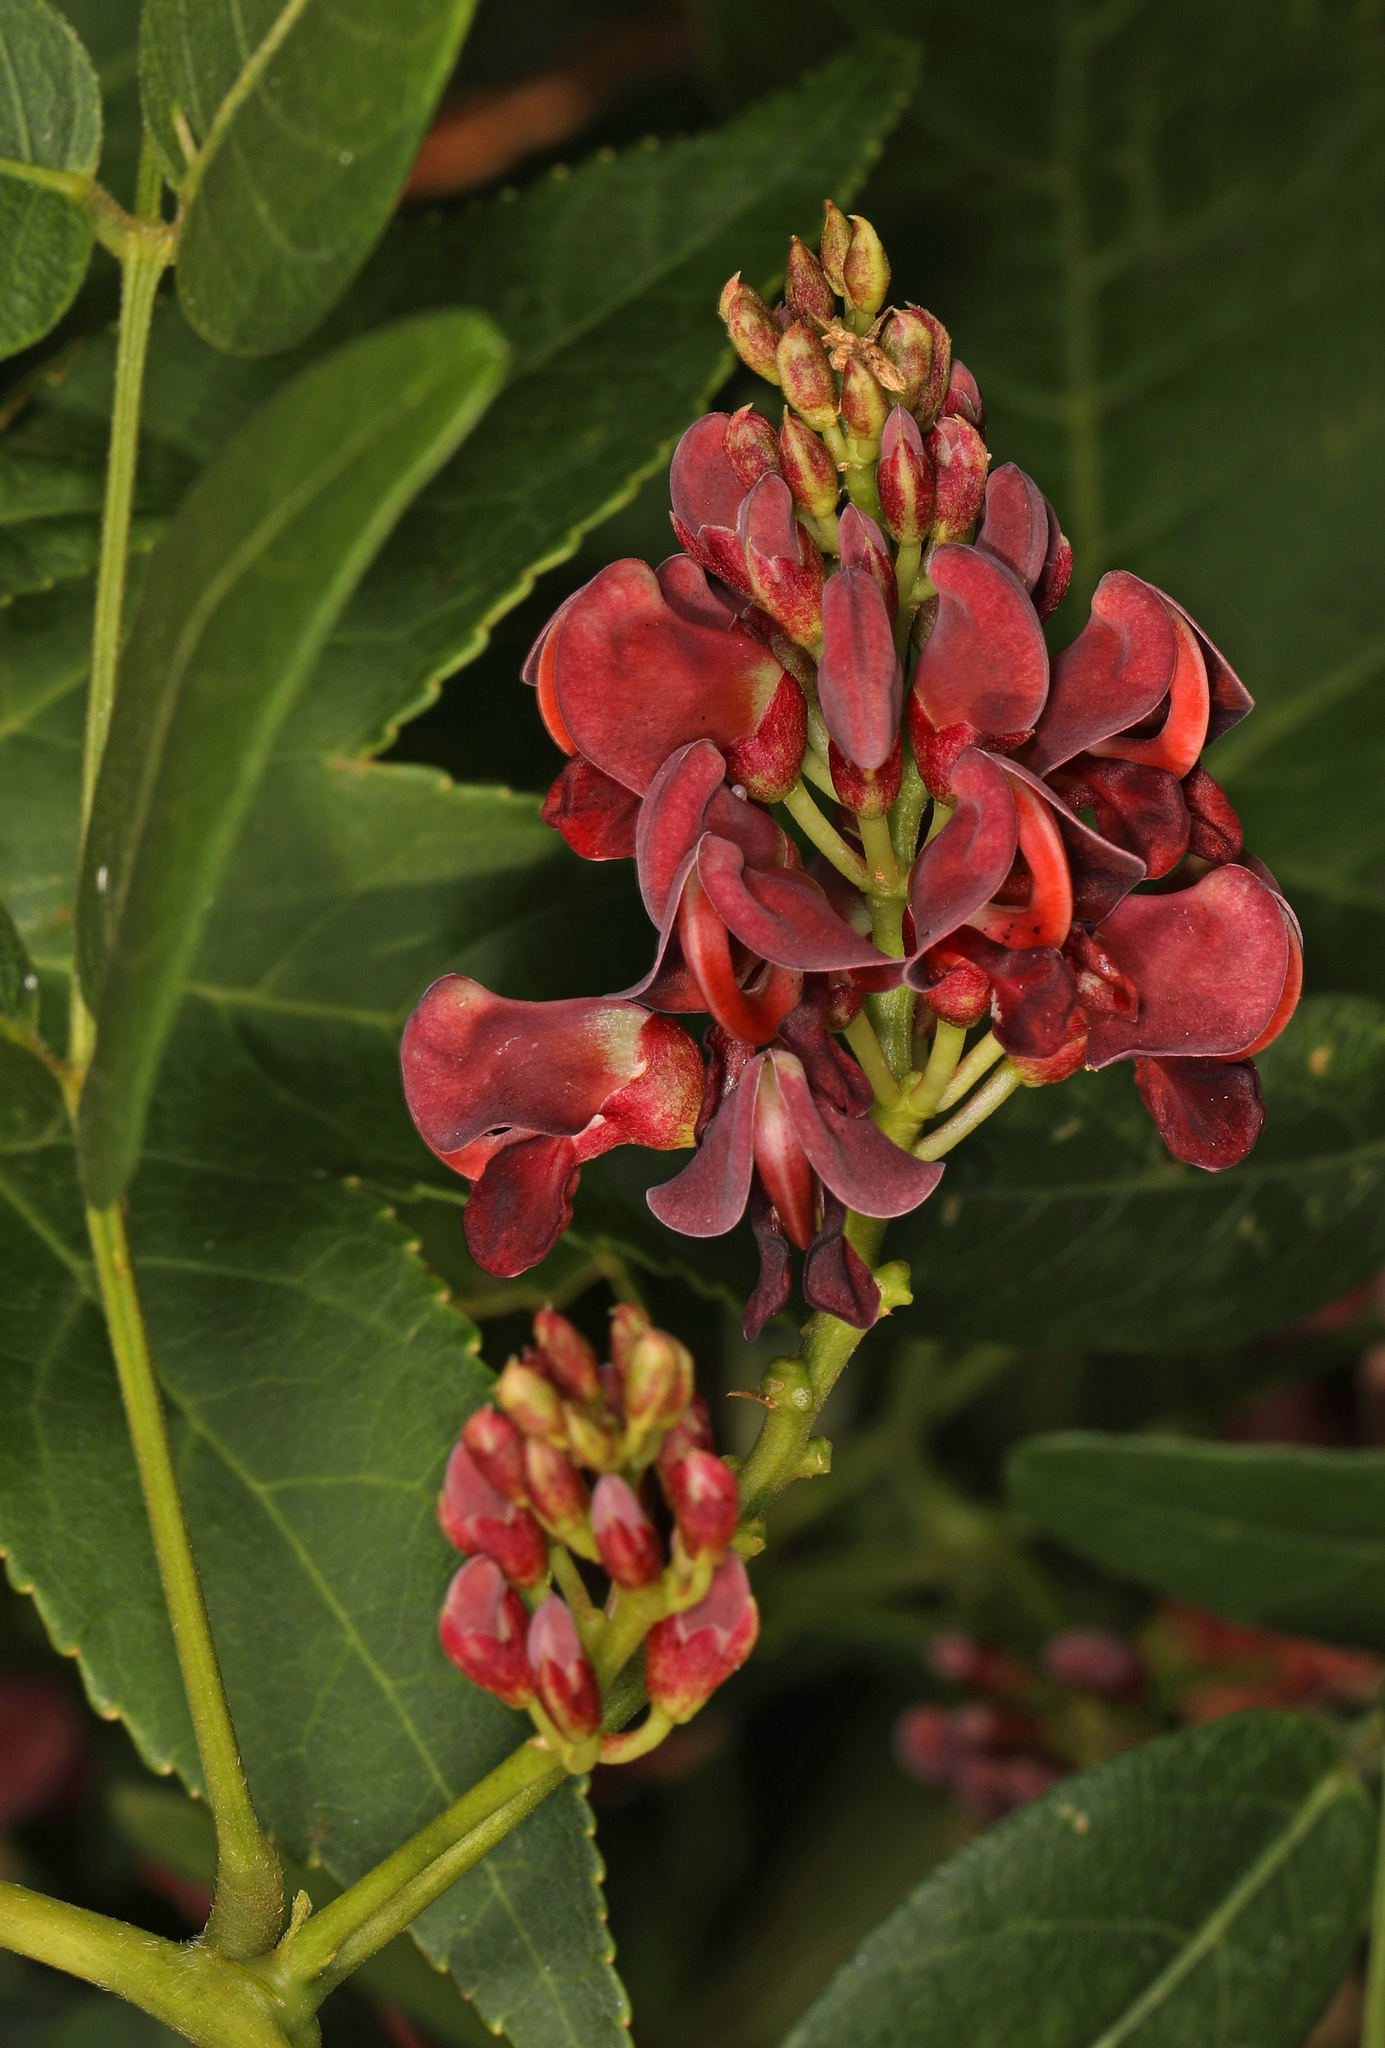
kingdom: Plantae
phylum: Tracheophyta
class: Magnoliopsida
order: Fabales
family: Fabaceae
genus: Apios
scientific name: Apios americana
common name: American potato-bean
